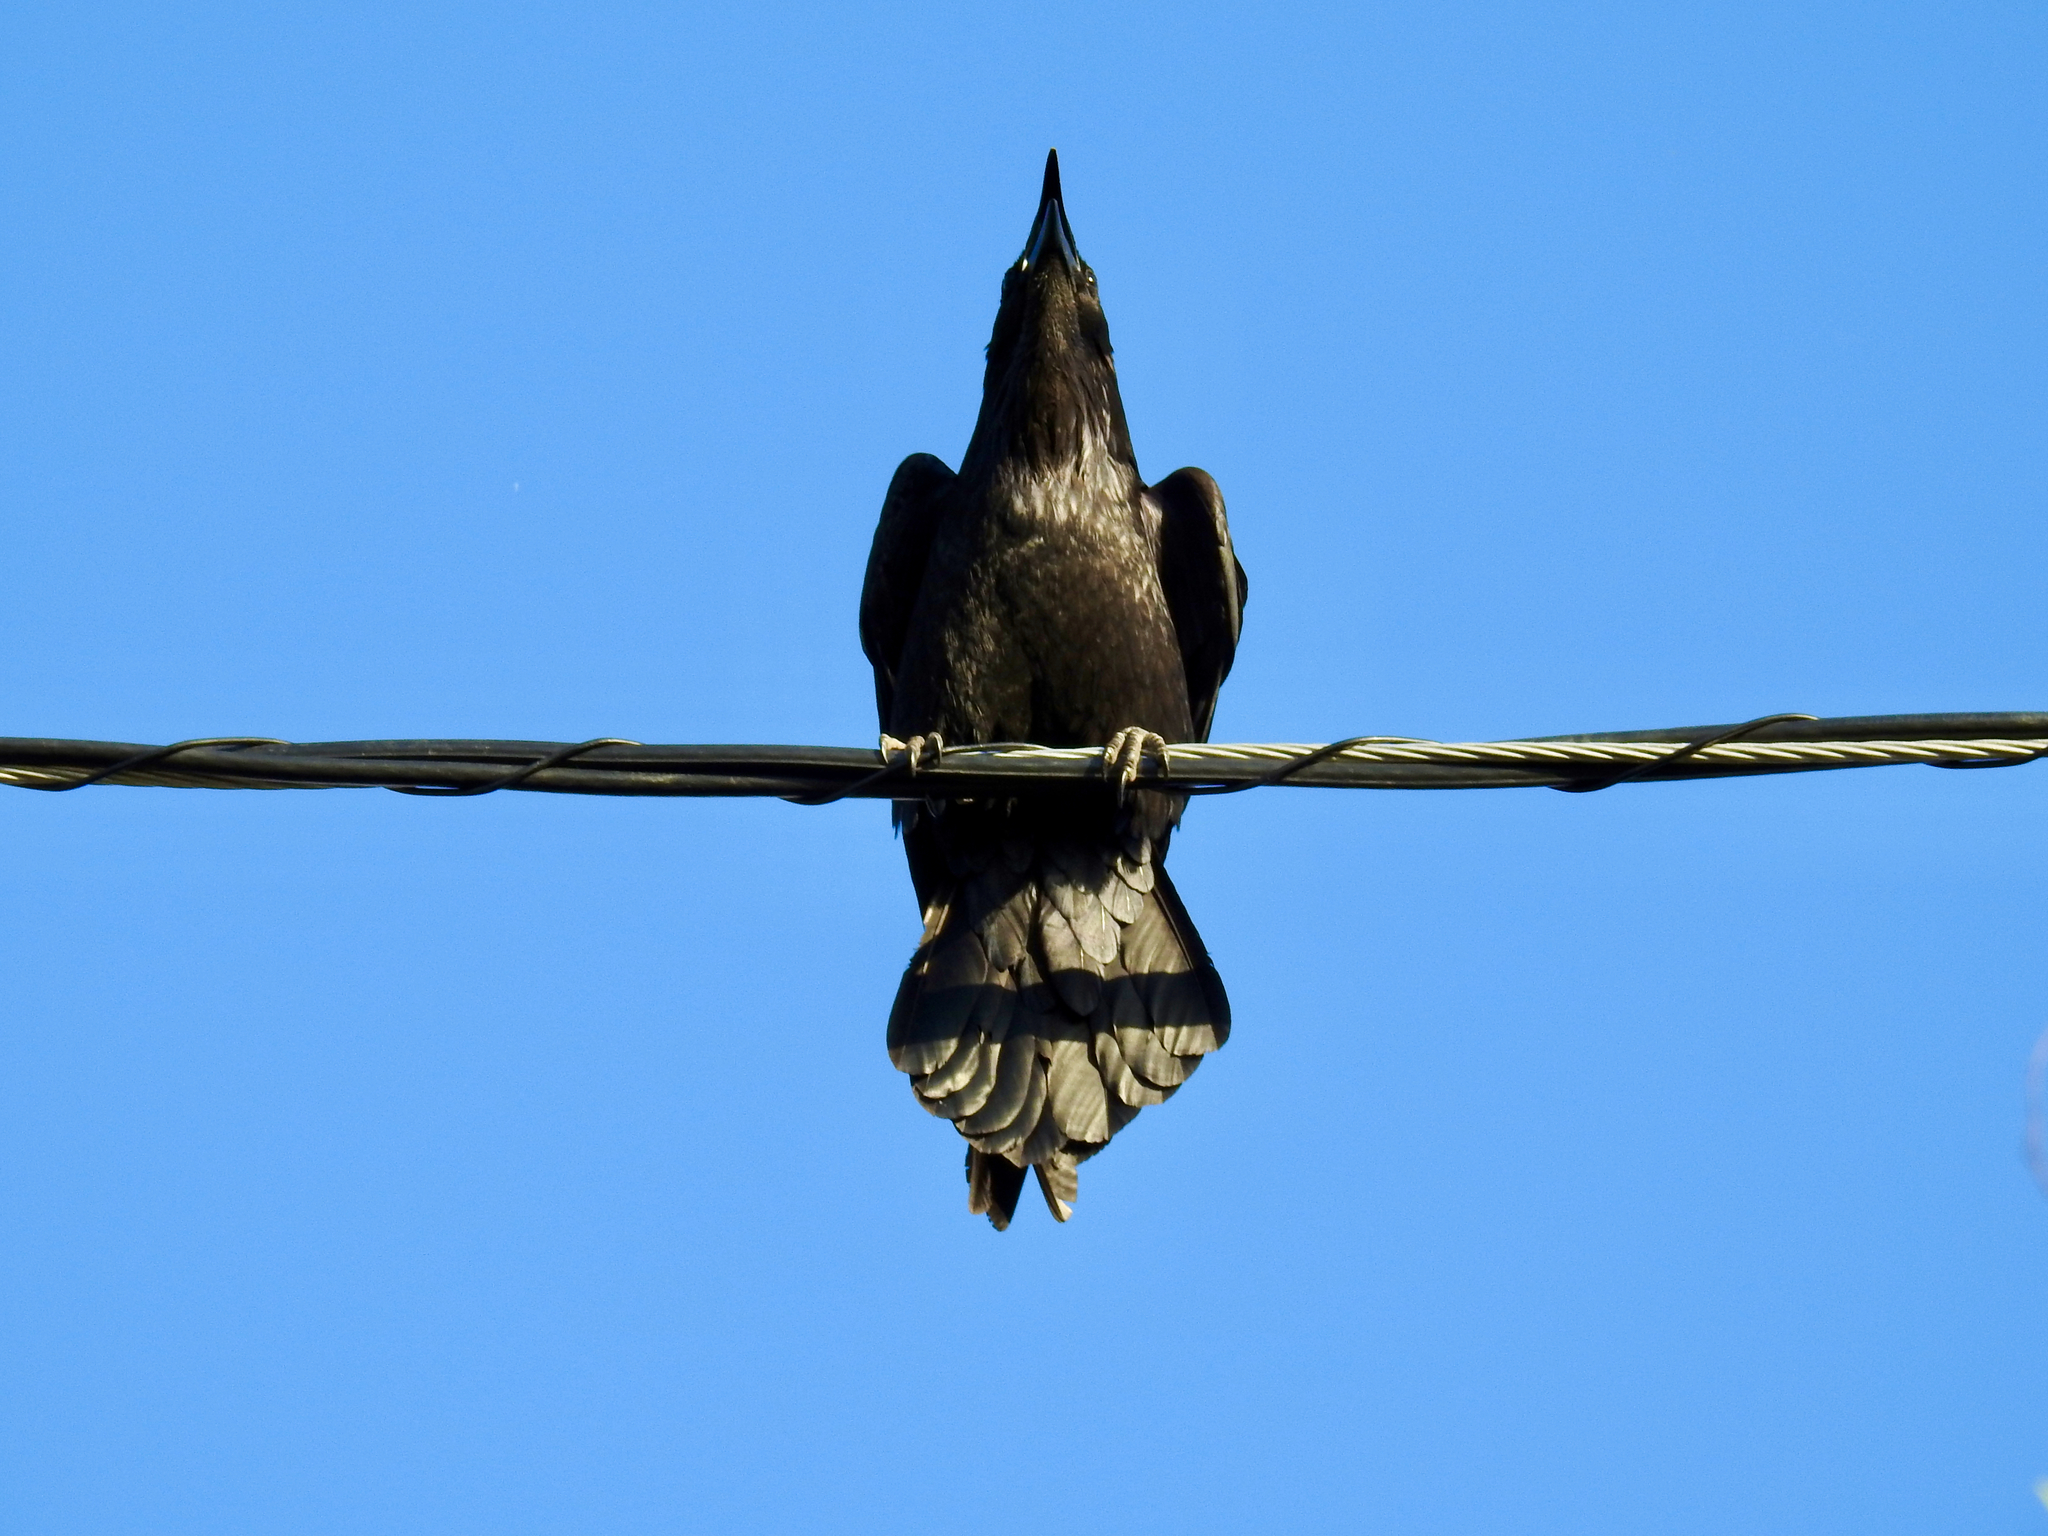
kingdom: Animalia
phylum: Chordata
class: Aves
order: Passeriformes
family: Corvidae
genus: Corvus
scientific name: Corvus corax
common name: Common raven
